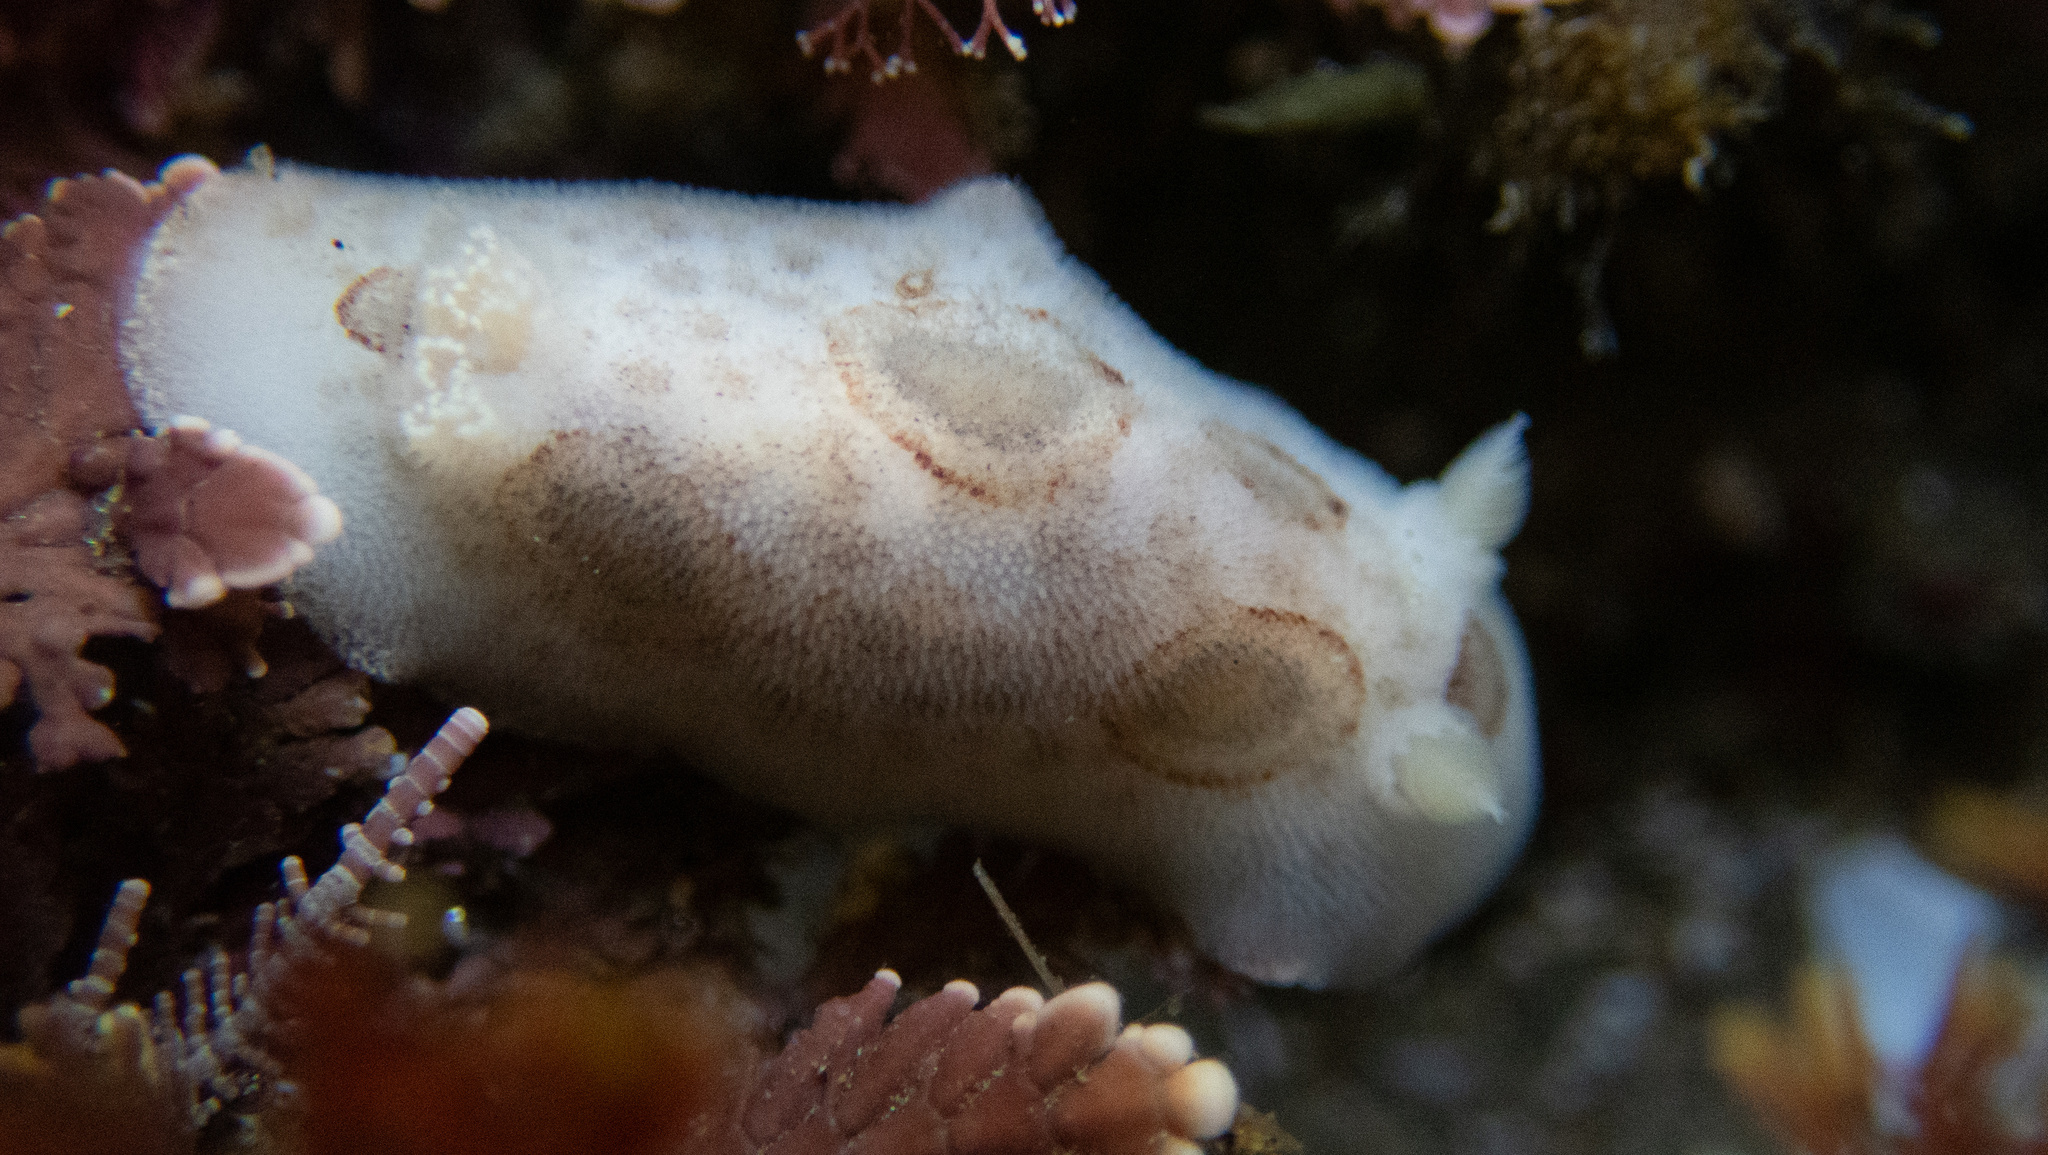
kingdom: Animalia
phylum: Mollusca
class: Gastropoda
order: Nudibranchia
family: Discodorididae
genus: Diaulula
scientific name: Diaulula sandiegensis
